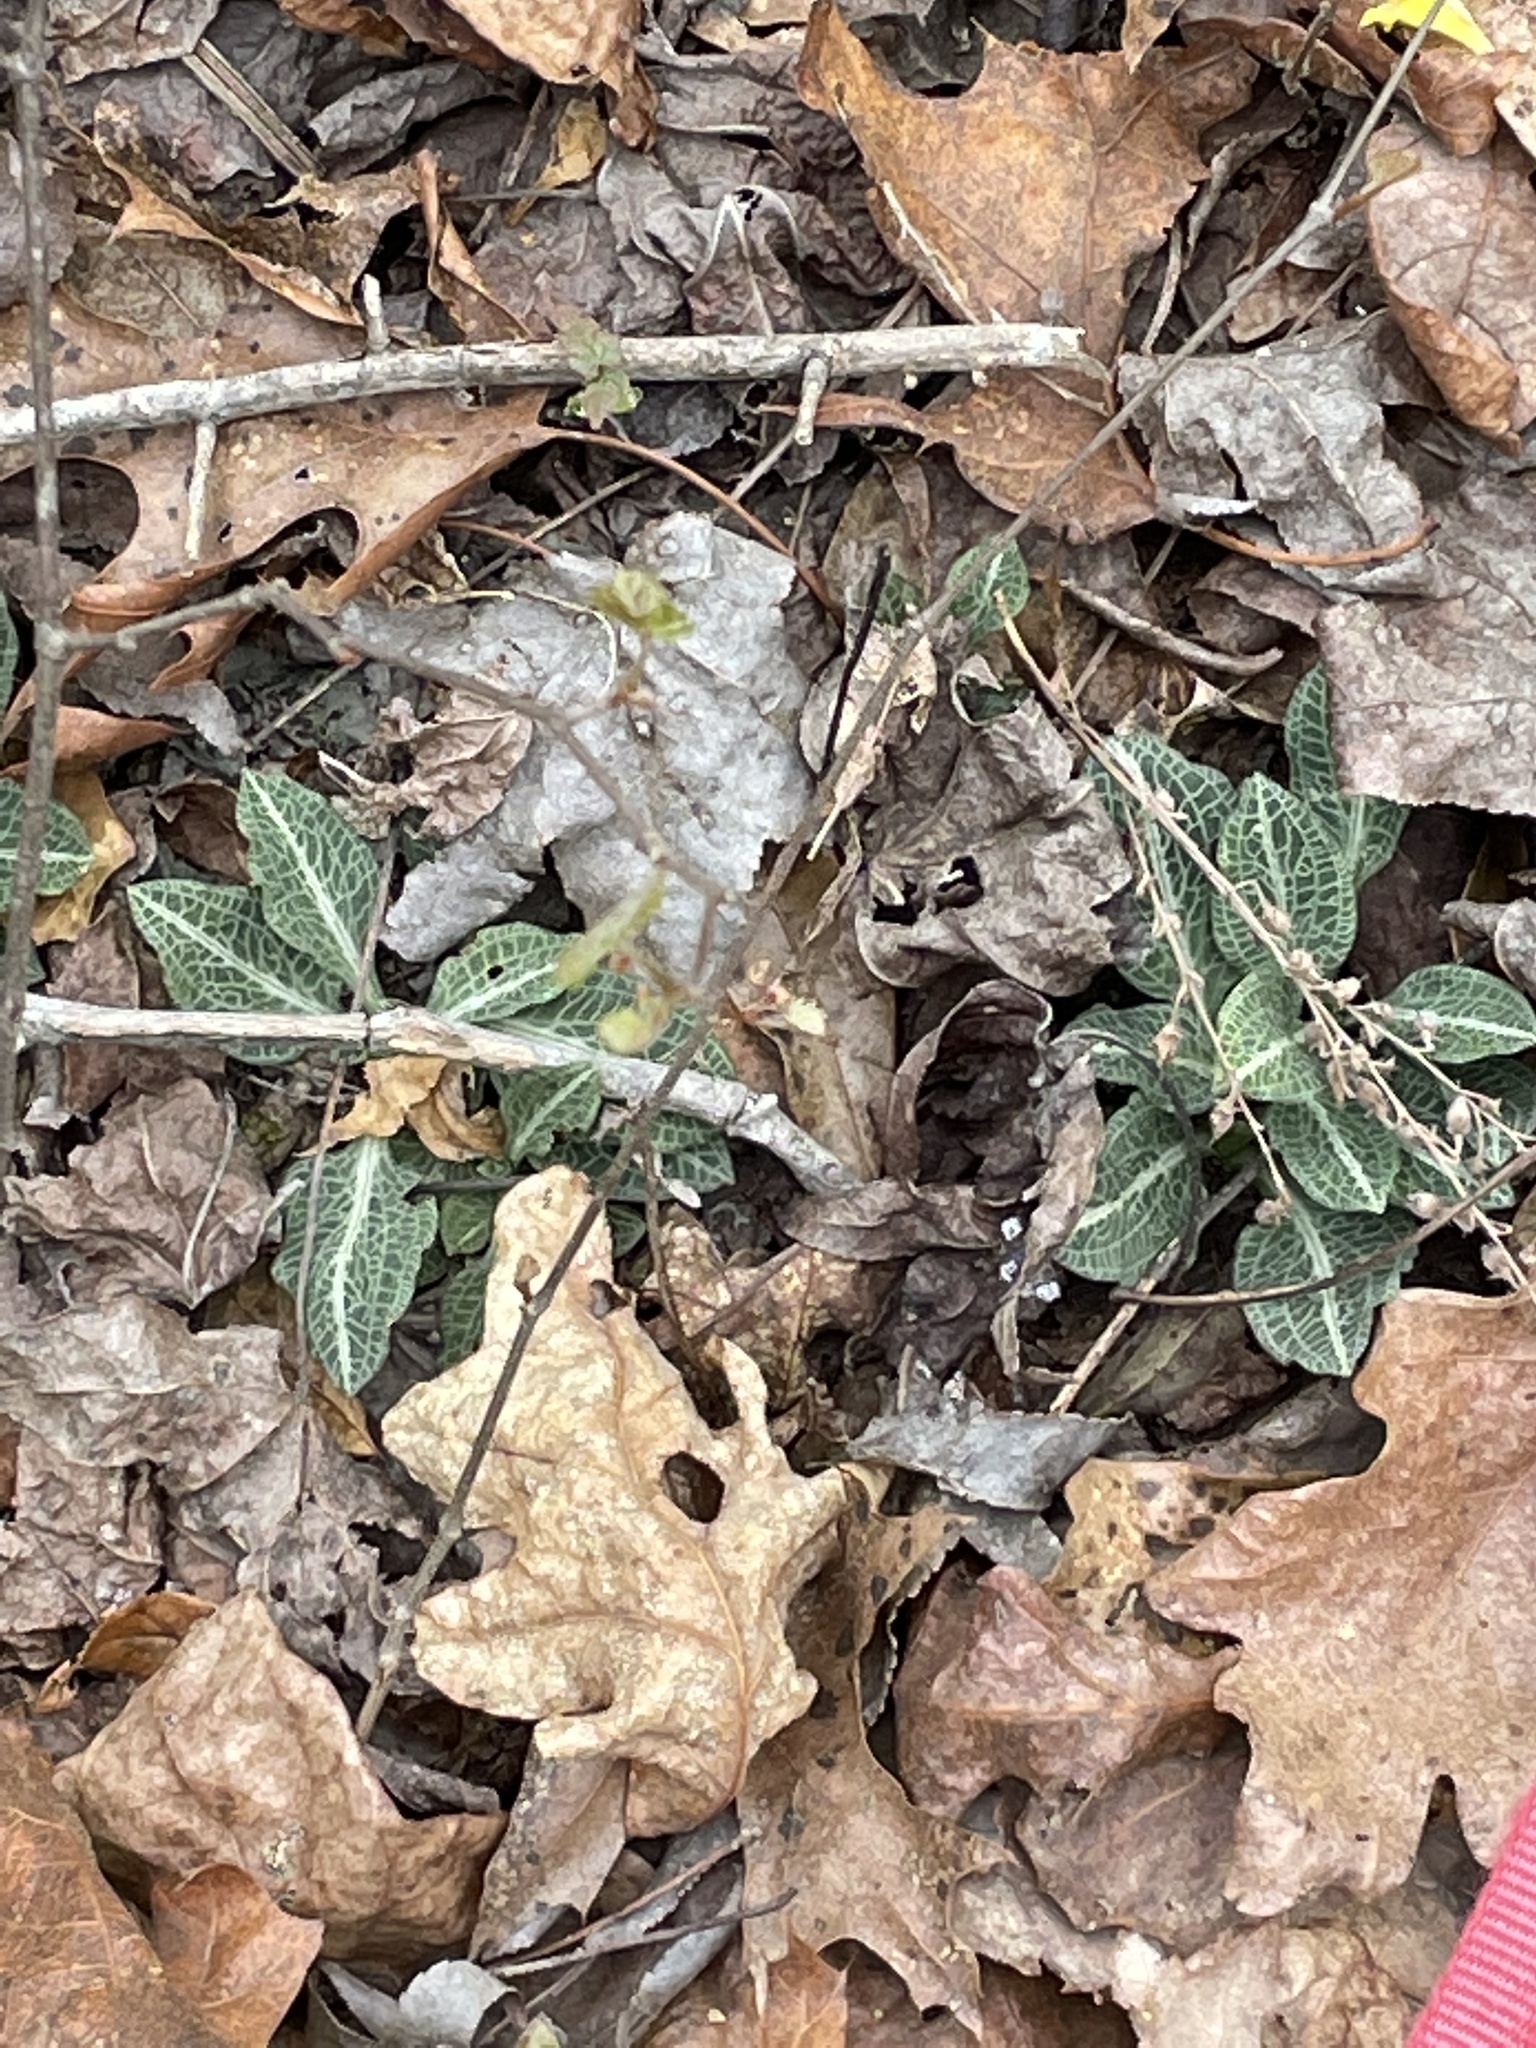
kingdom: Plantae
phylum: Tracheophyta
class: Liliopsida
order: Asparagales
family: Orchidaceae
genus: Goodyera
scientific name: Goodyera pubescens
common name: Downy rattlesnake-plantain
